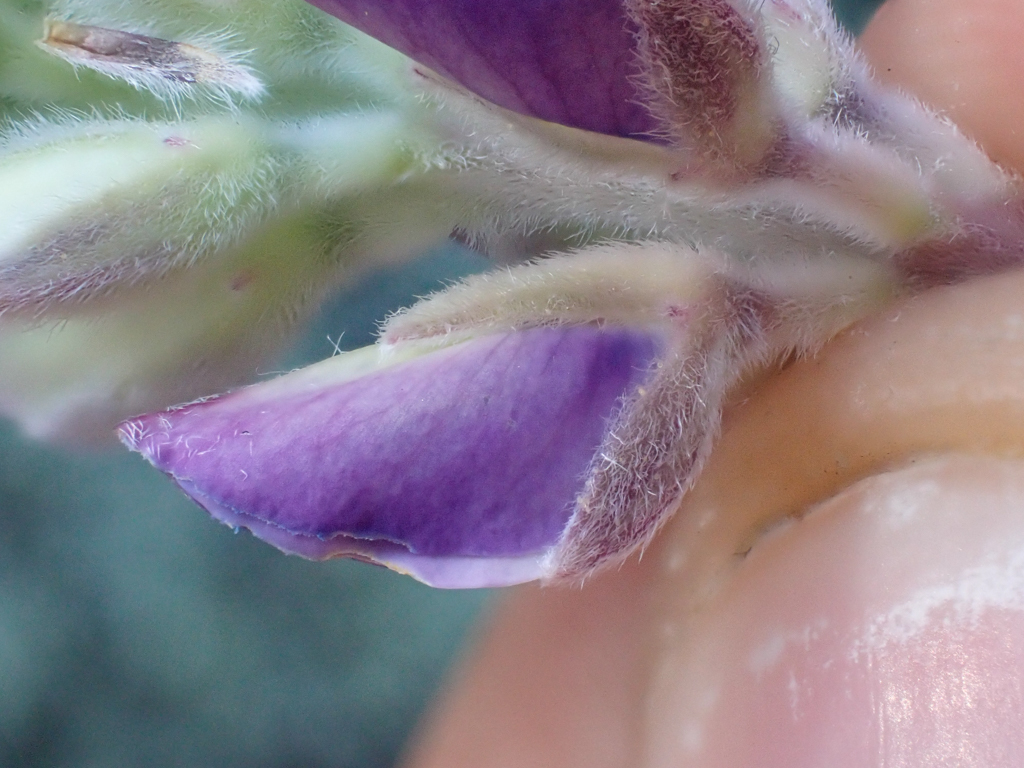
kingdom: Plantae
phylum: Tracheophyta
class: Magnoliopsida
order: Fabales
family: Fabaceae
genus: Lupinus
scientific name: Lupinus albifrons
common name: Foothill lupine
